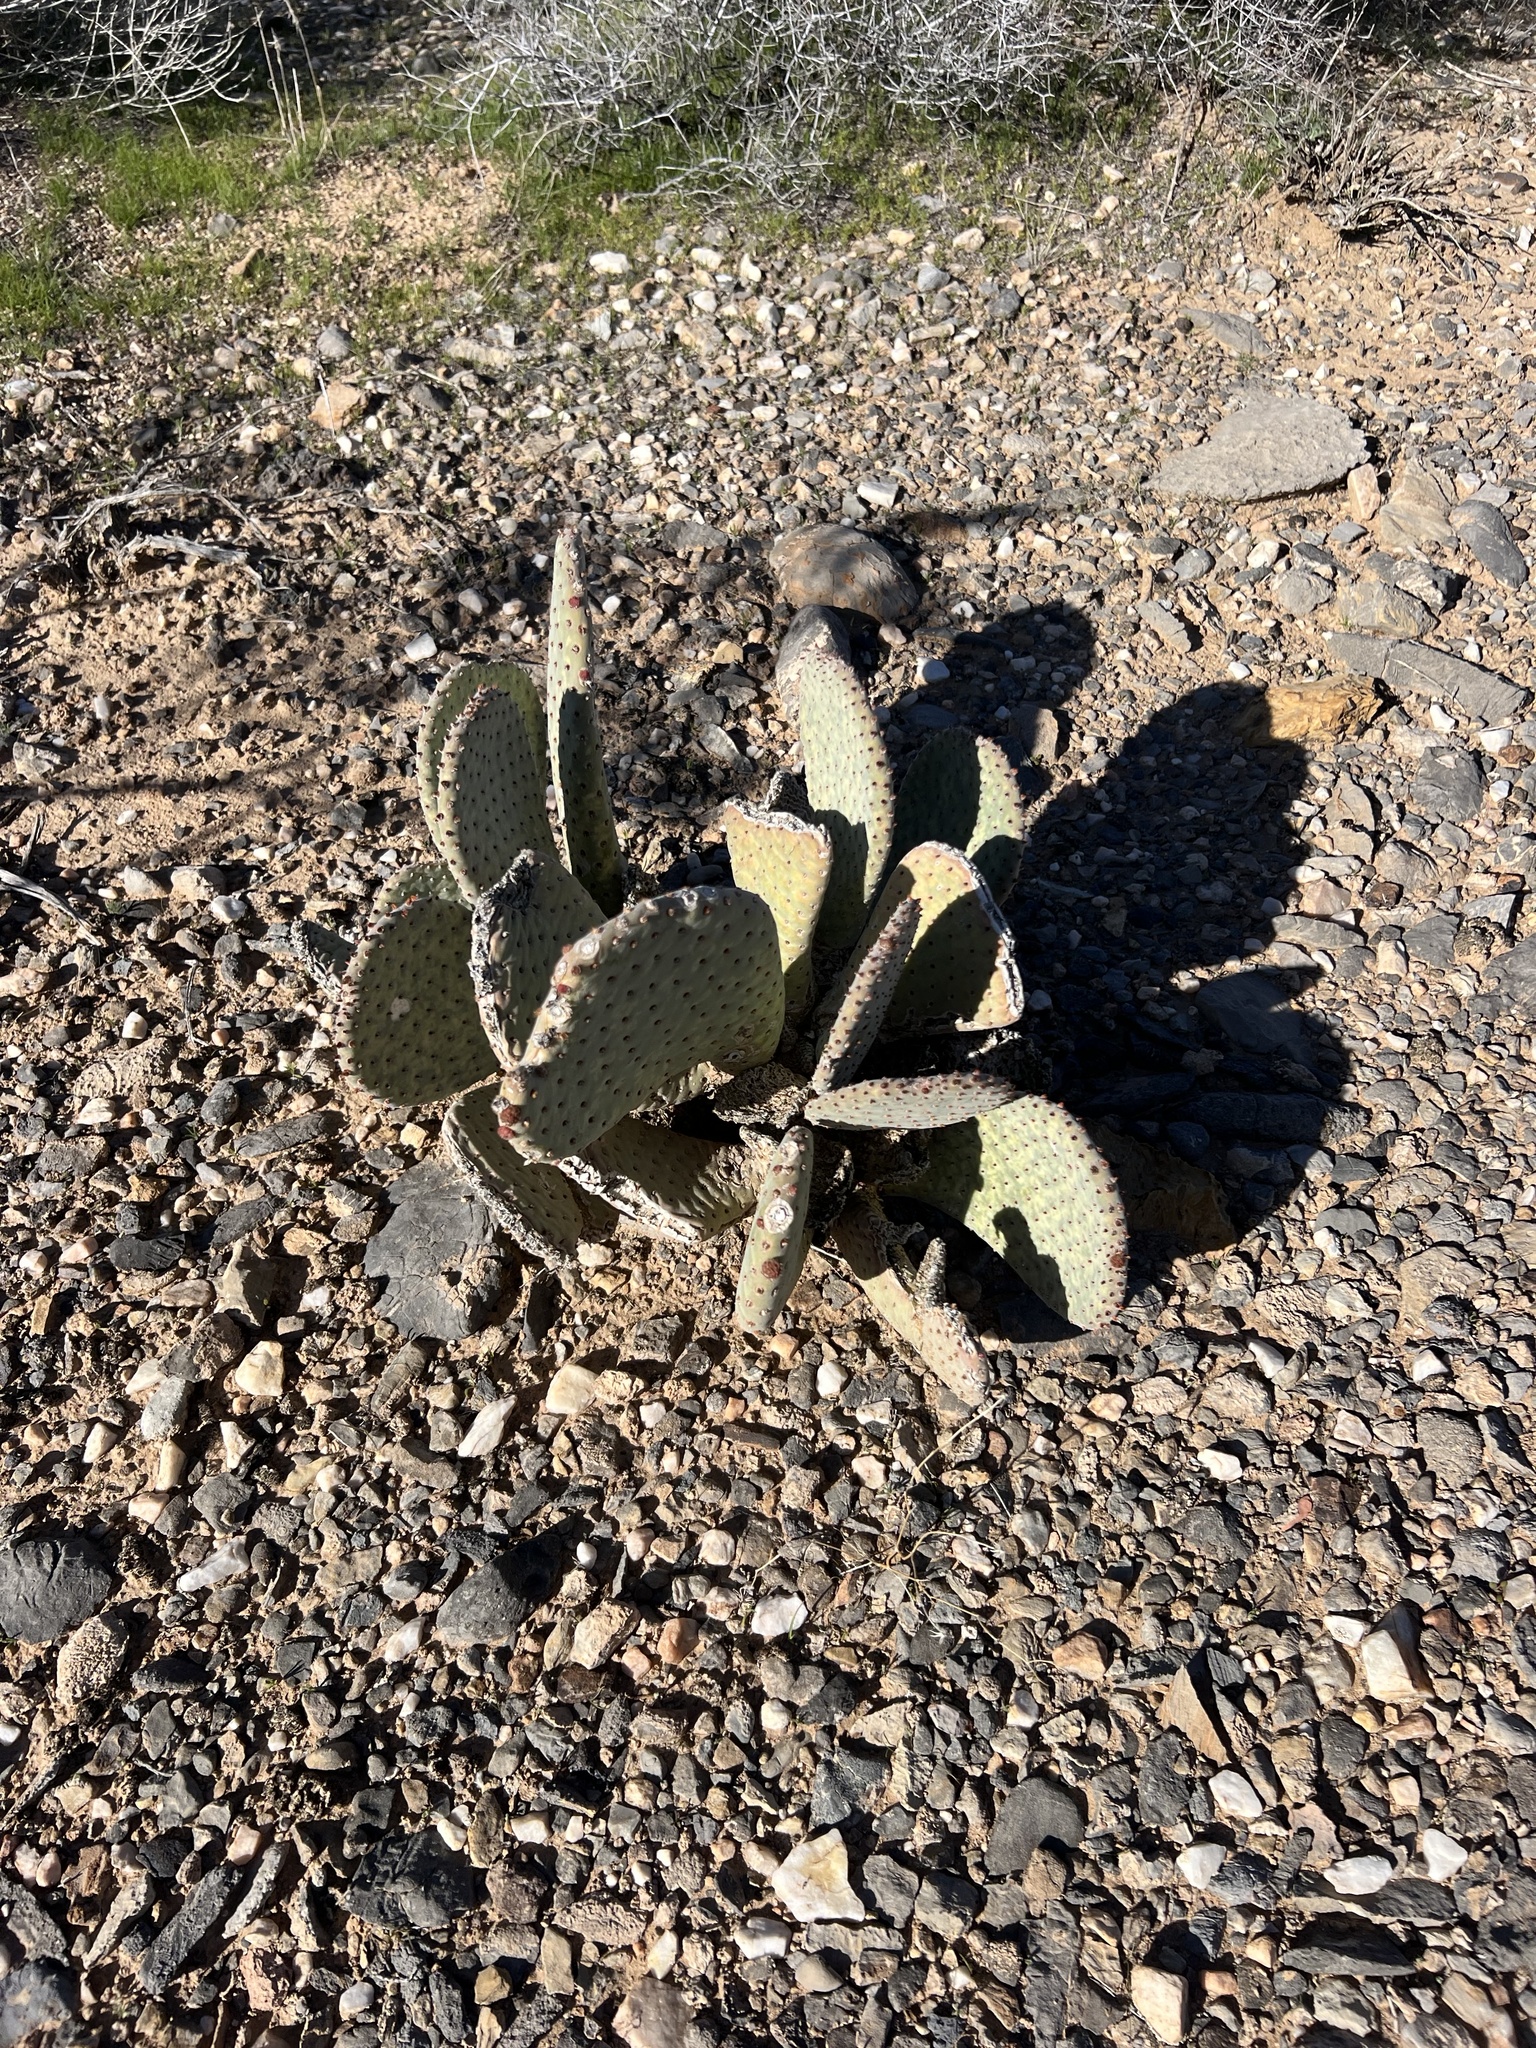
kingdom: Plantae
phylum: Tracheophyta
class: Magnoliopsida
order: Caryophyllales
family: Cactaceae
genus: Opuntia
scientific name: Opuntia basilaris
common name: Beavertail prickly-pear
